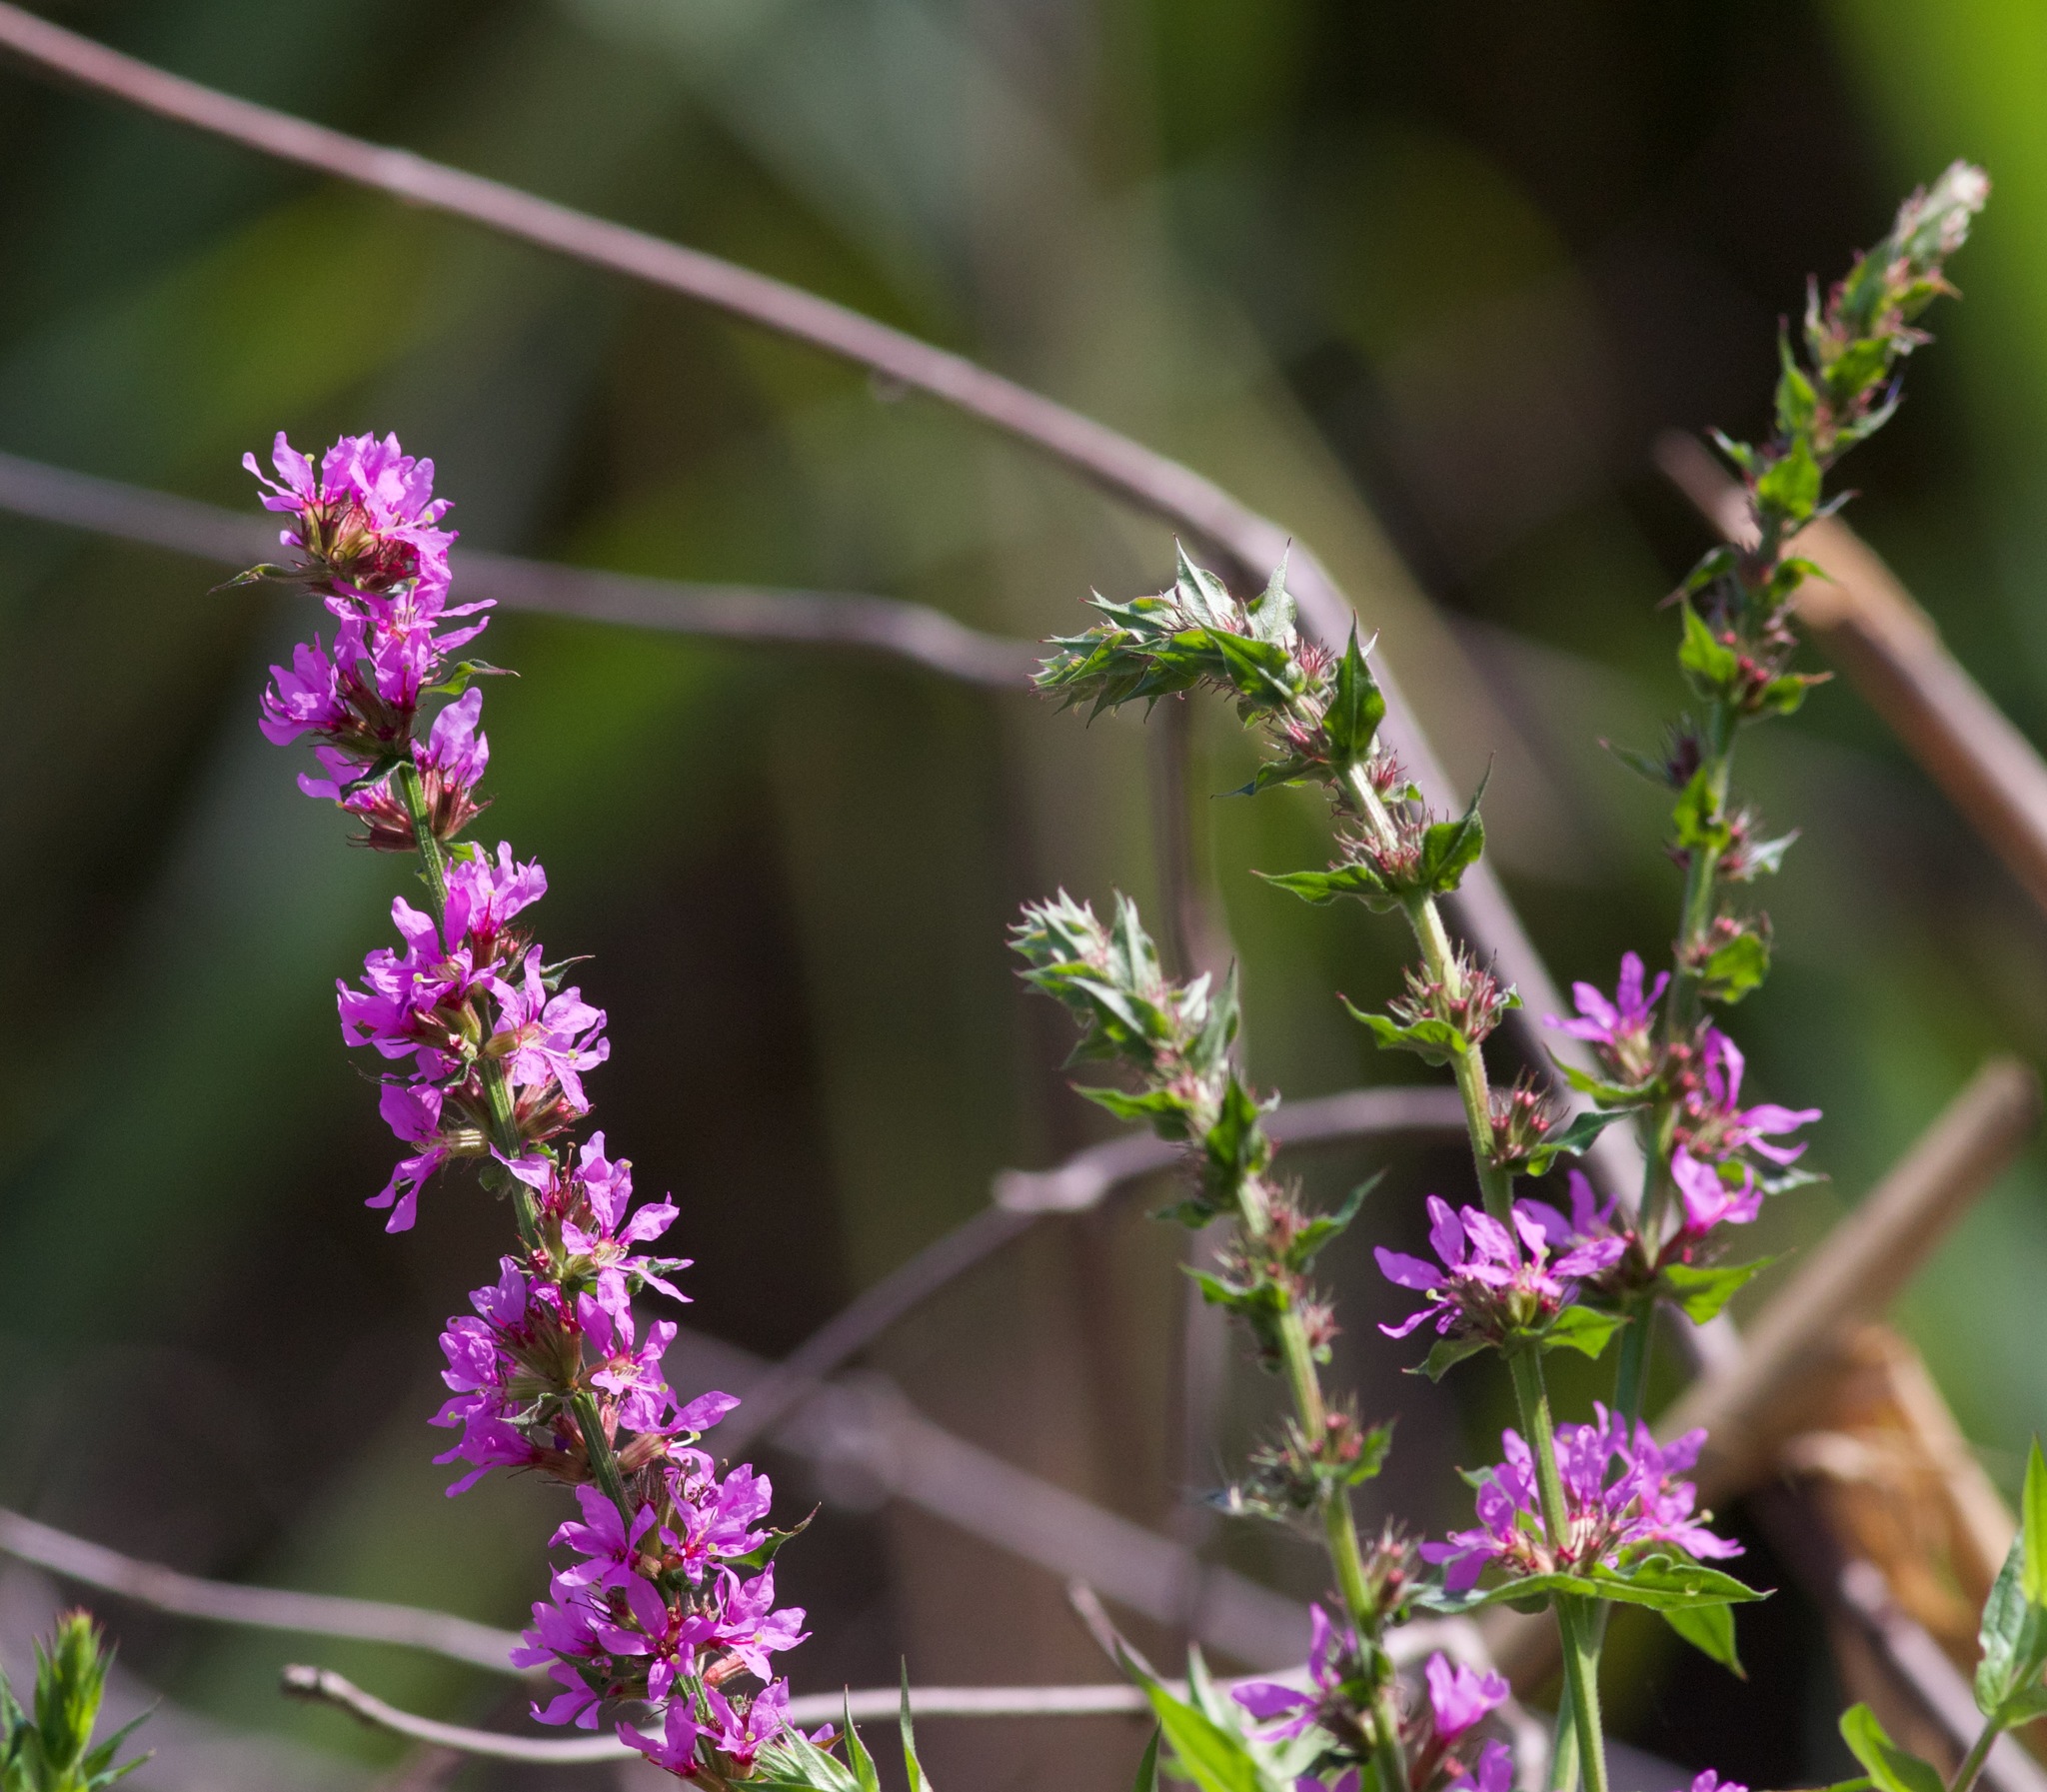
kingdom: Plantae
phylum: Tracheophyta
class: Magnoliopsida
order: Myrtales
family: Lythraceae
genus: Lythrum
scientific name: Lythrum salicaria
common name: Purple loosestrife
